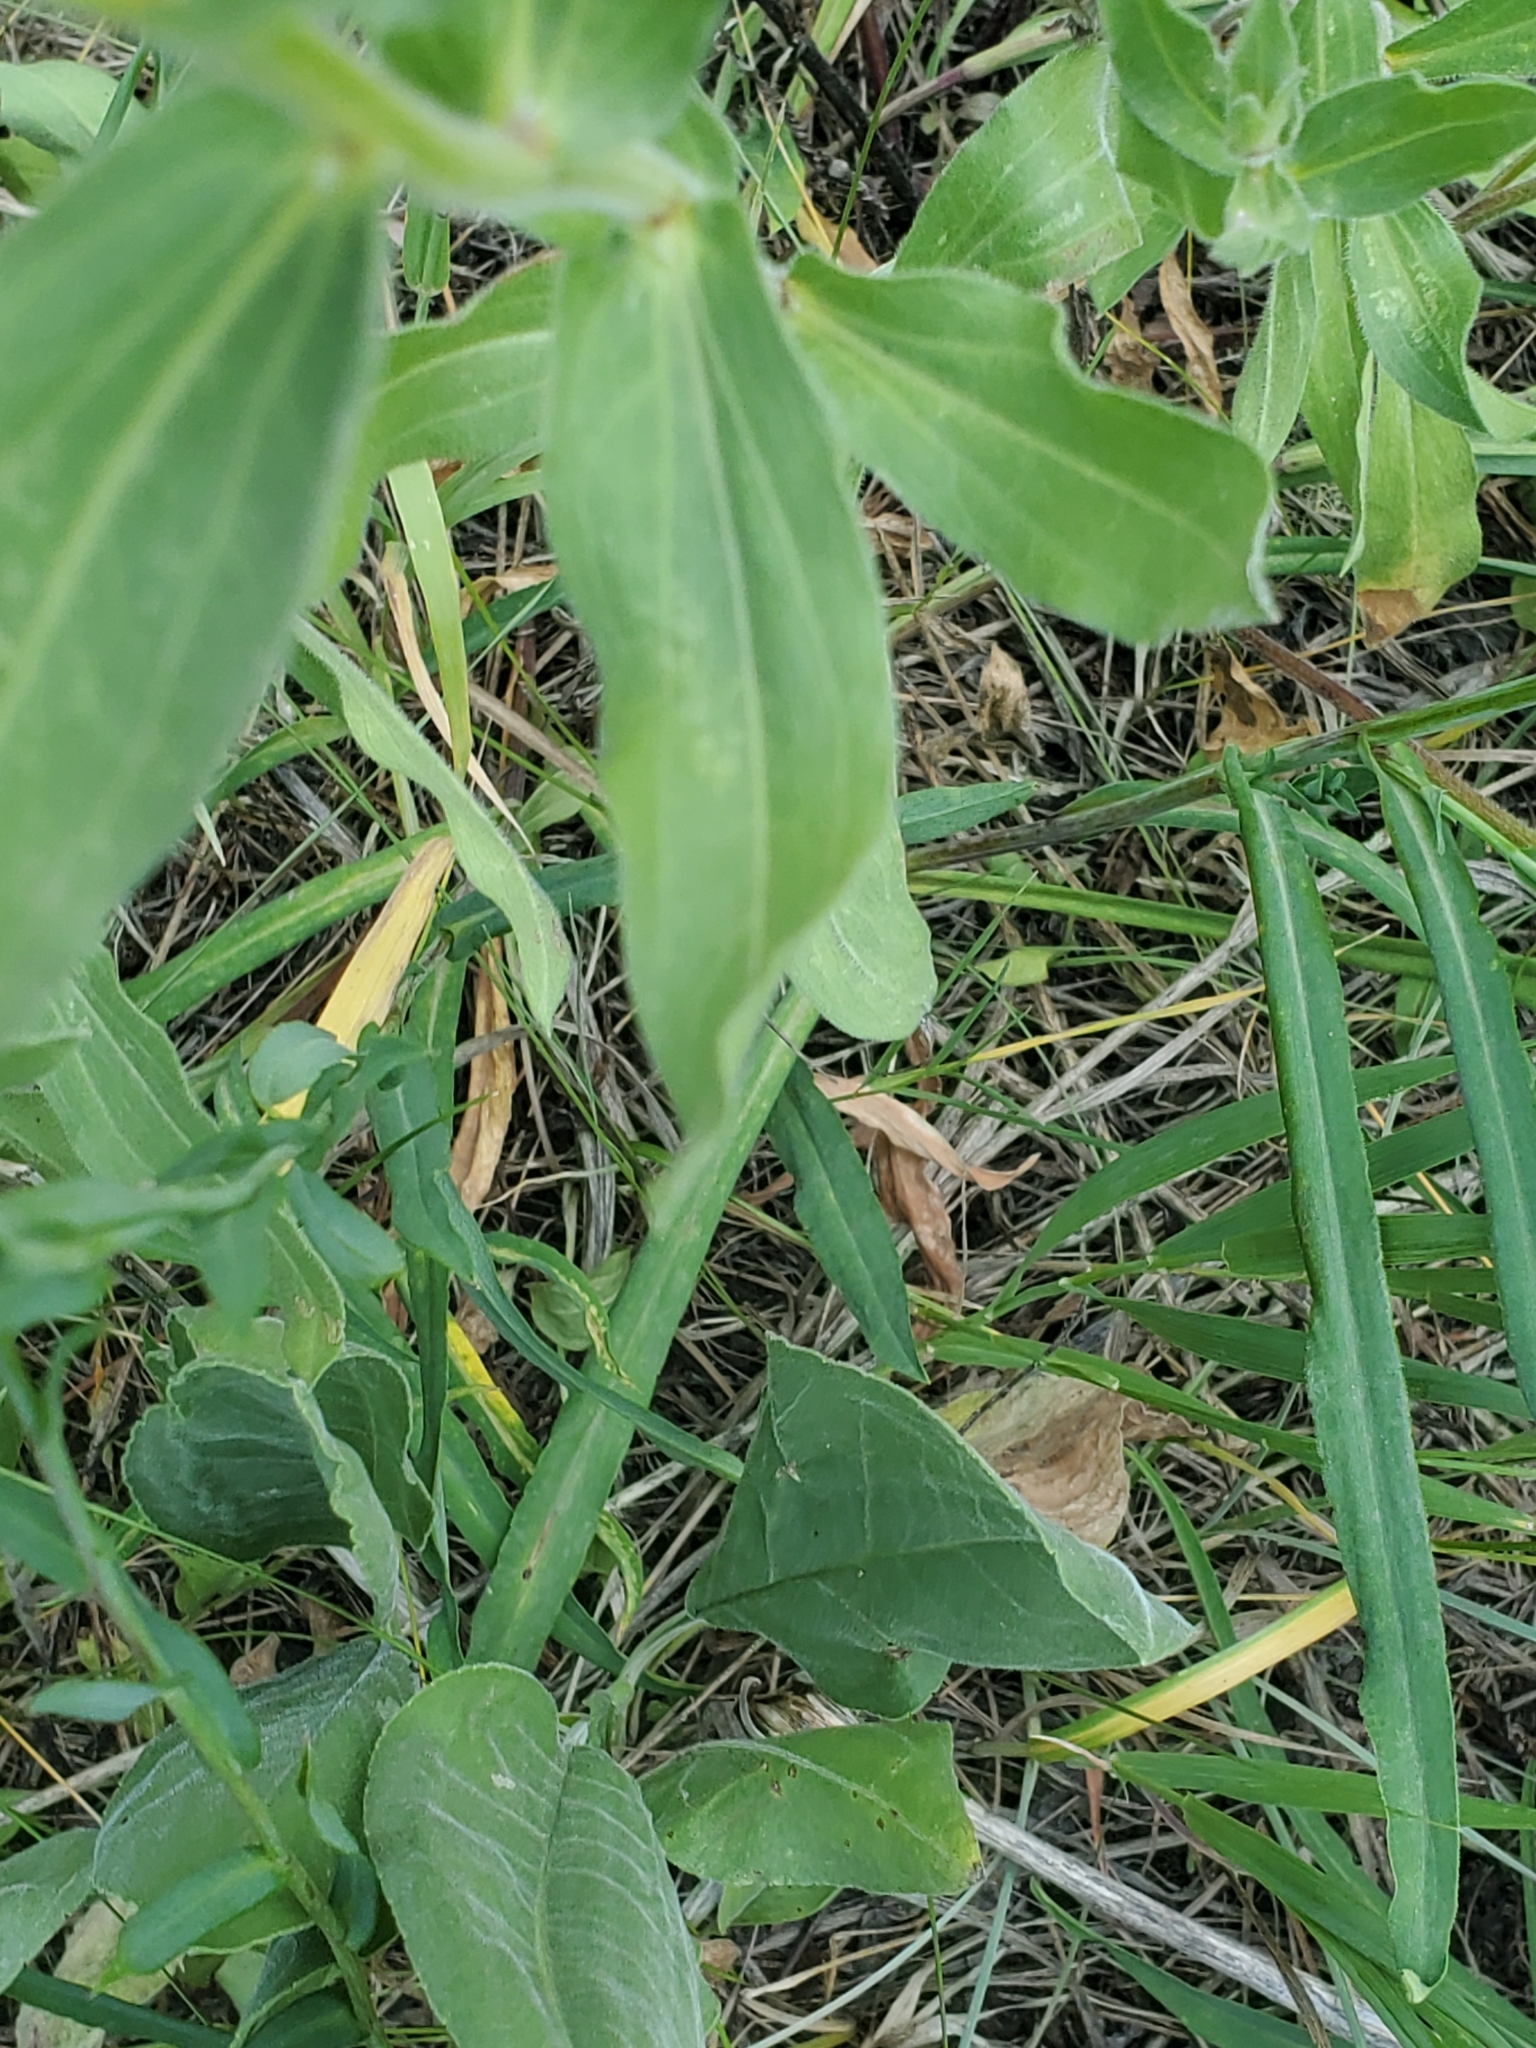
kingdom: Plantae
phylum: Tracheophyta
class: Magnoliopsida
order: Asterales
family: Asteraceae
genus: Erigeron
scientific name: Erigeron subtrinervis
